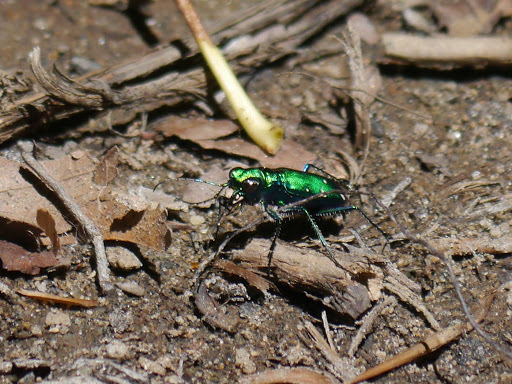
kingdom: Animalia
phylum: Arthropoda
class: Insecta
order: Coleoptera
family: Carabidae
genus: Cicindela
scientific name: Cicindela sexguttata
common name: Six-spotted tiger beetle
